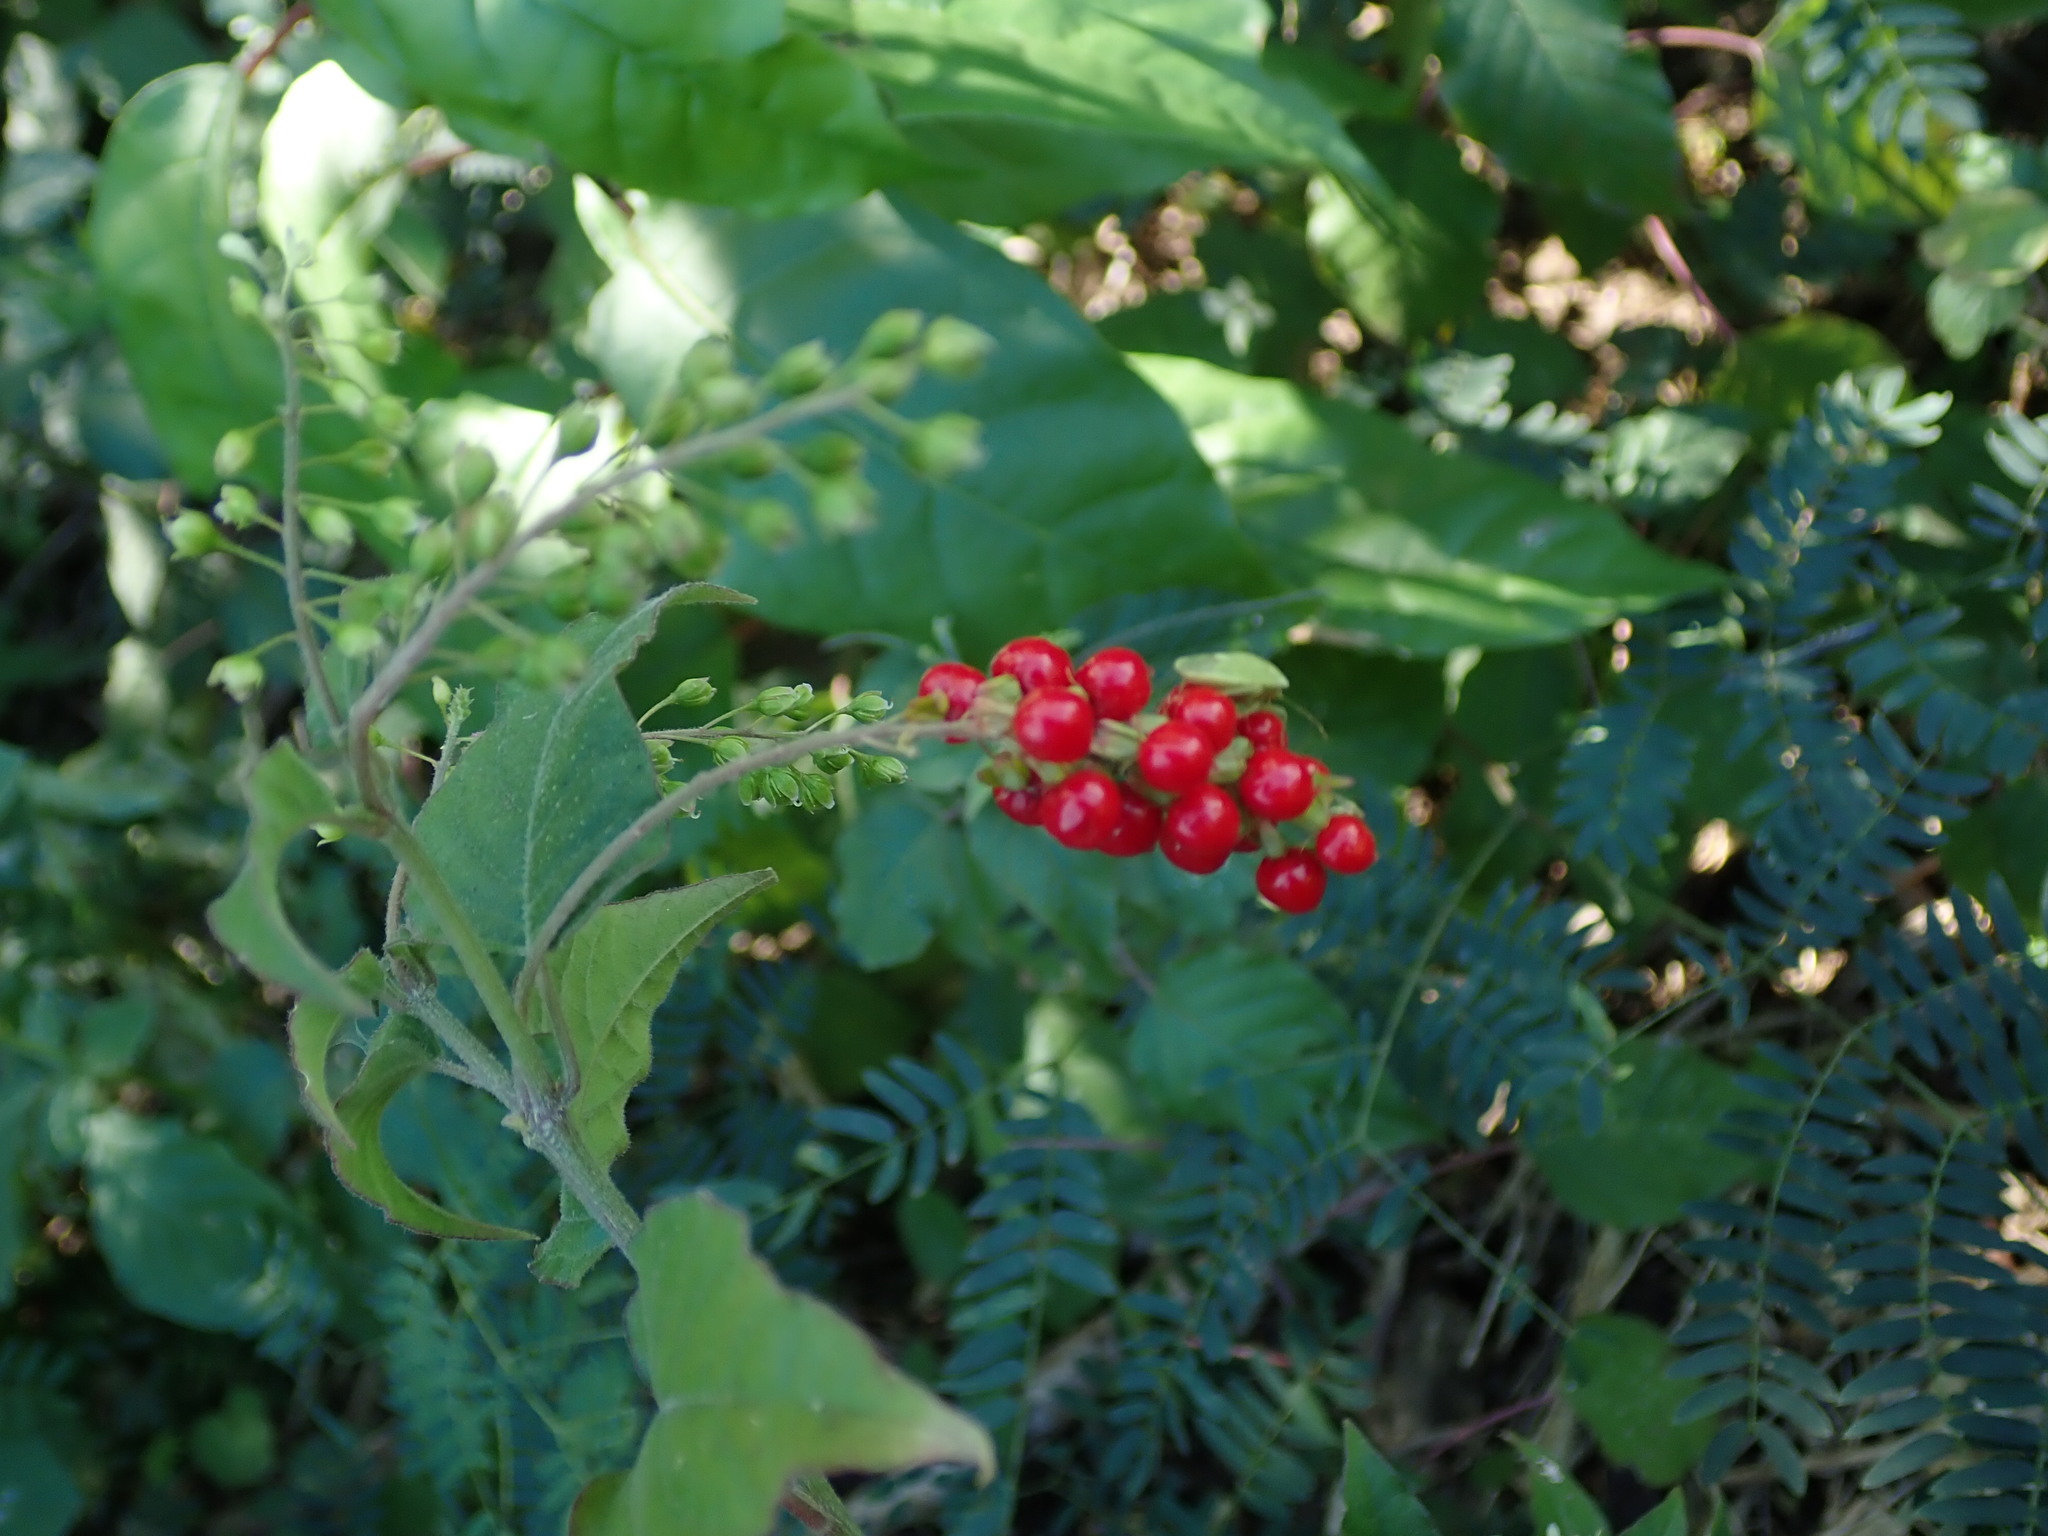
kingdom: Plantae
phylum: Tracheophyta
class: Magnoliopsida
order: Caryophyllales
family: Phytolaccaceae
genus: Rivina
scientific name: Rivina humilis
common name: Rougeplant
